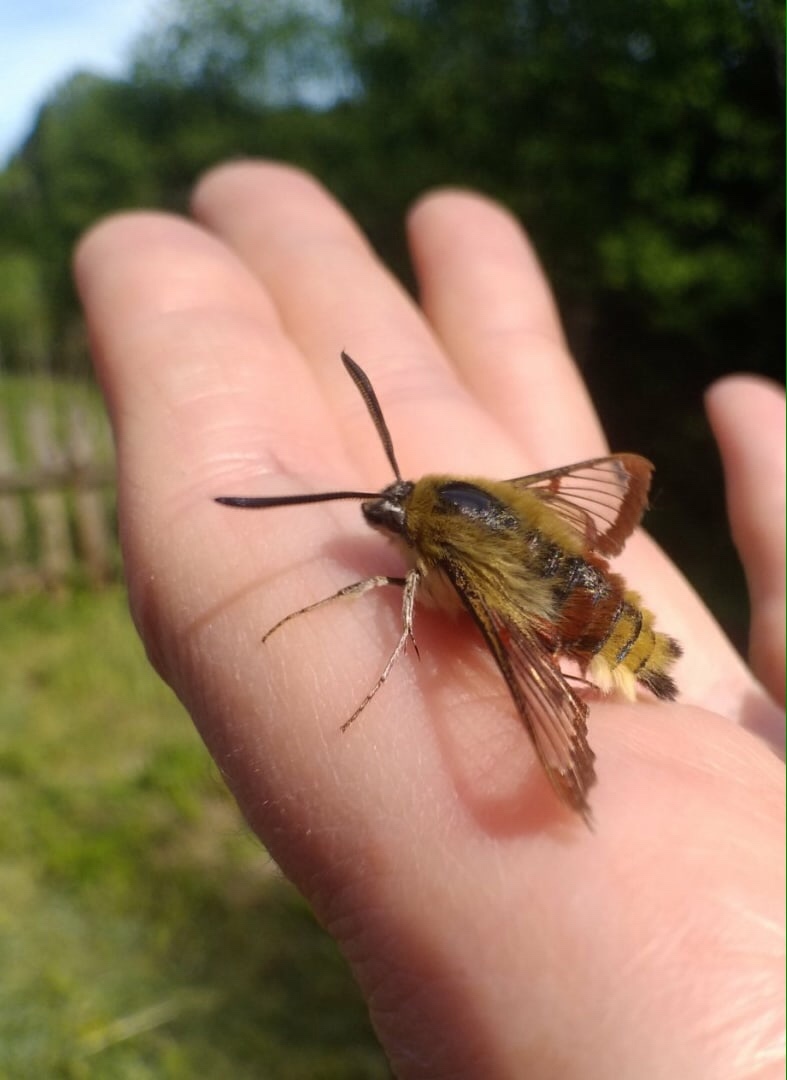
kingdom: Animalia
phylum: Arthropoda
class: Insecta
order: Lepidoptera
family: Sphingidae
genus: Hemaris
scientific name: Hemaris fuciformis
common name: Broad-bordered bee hawk-moth
